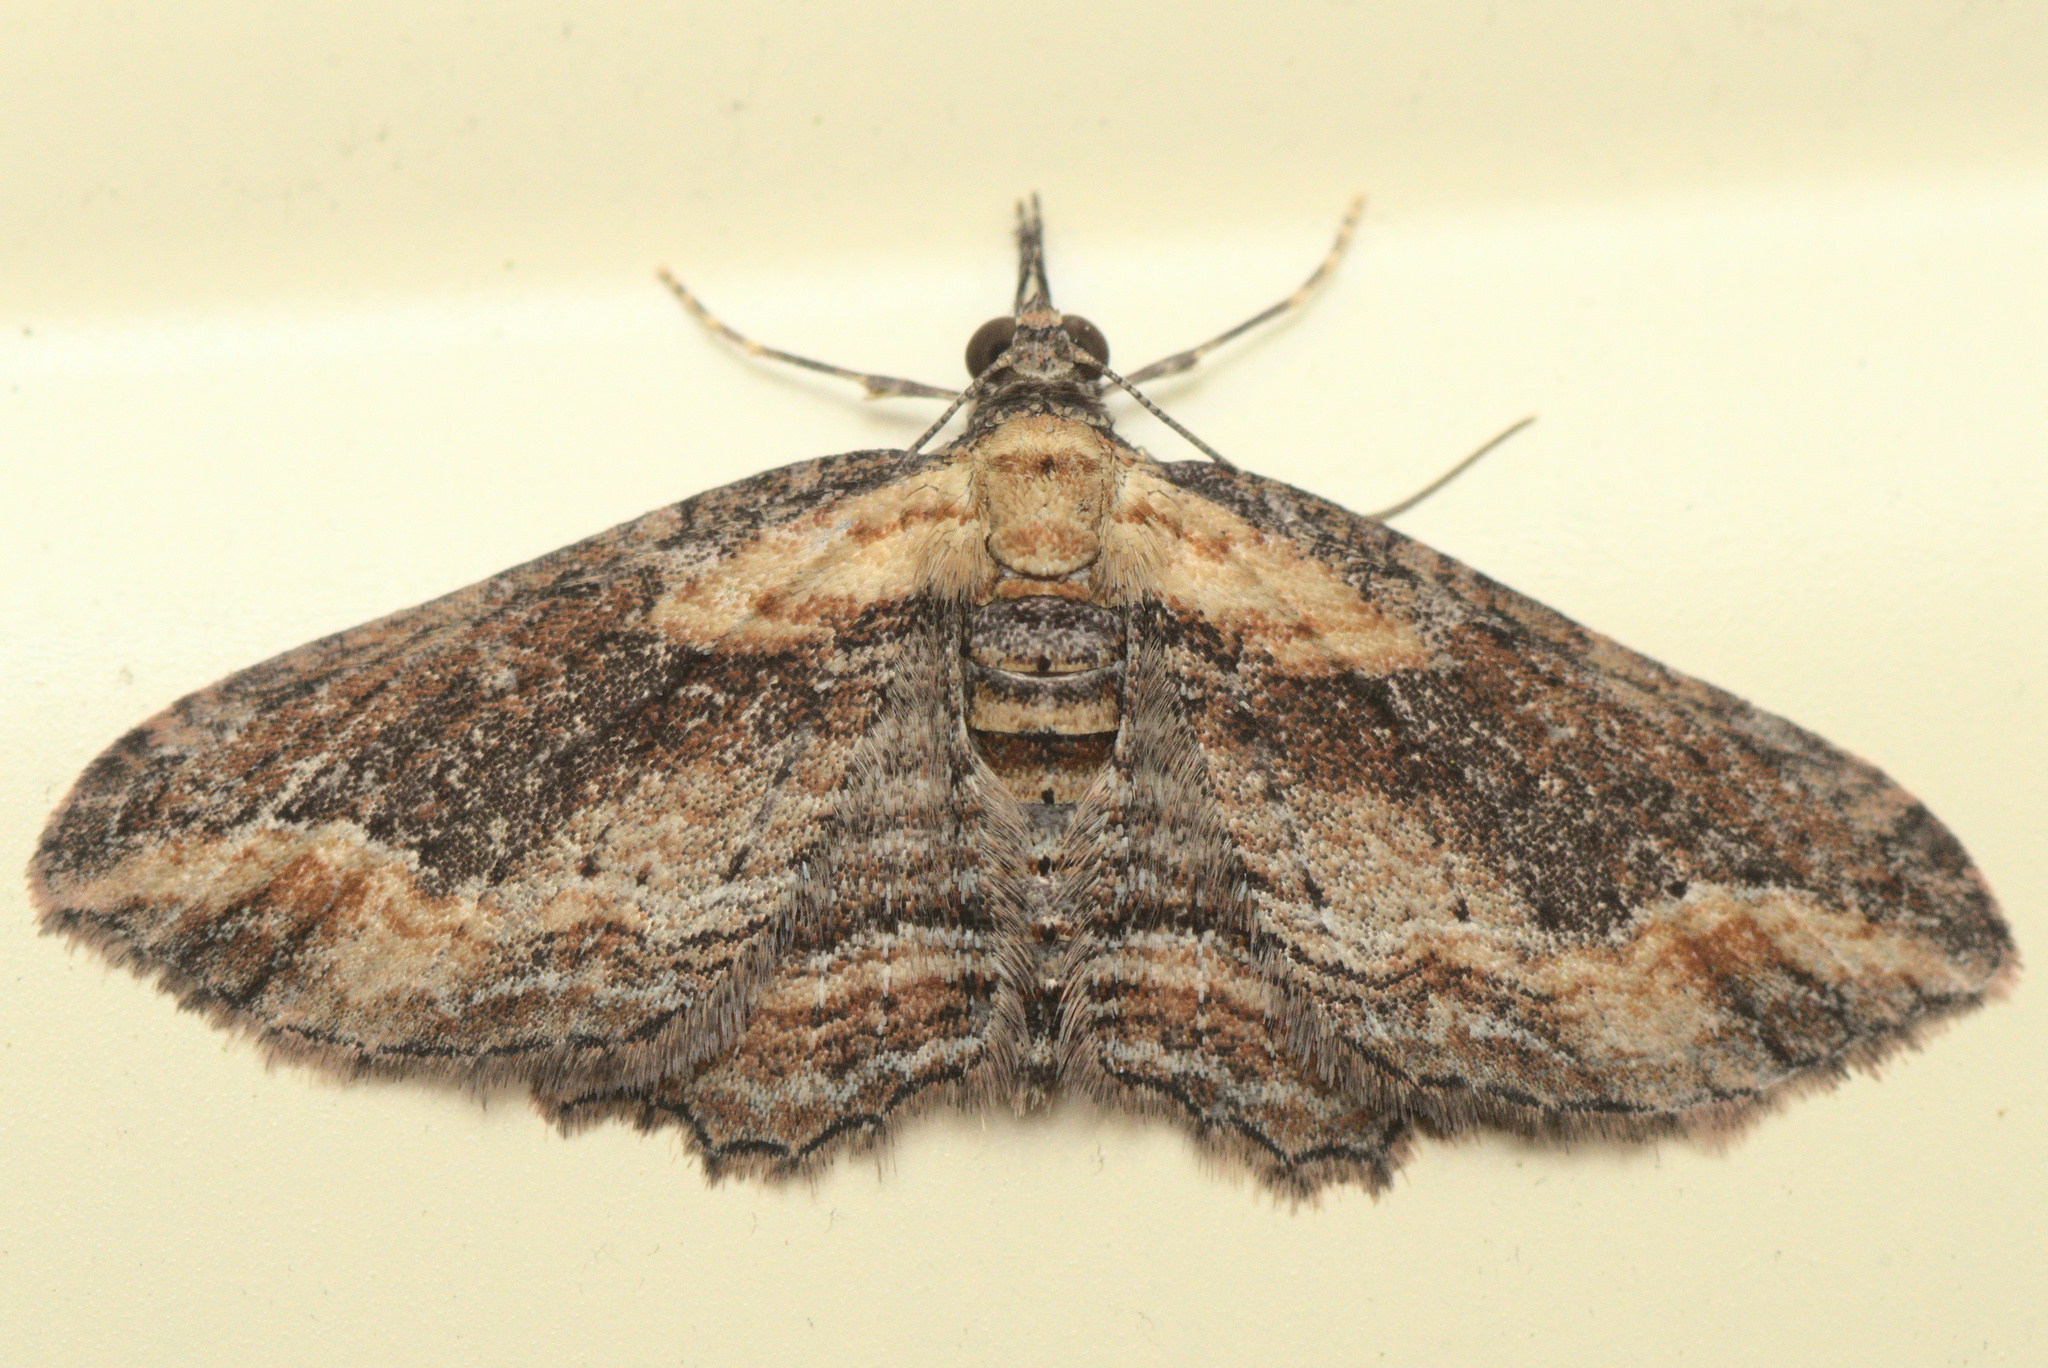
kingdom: Animalia
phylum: Arthropoda
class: Insecta
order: Lepidoptera
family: Geometridae
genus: Chloroclystis
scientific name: Chloroclystis filata
